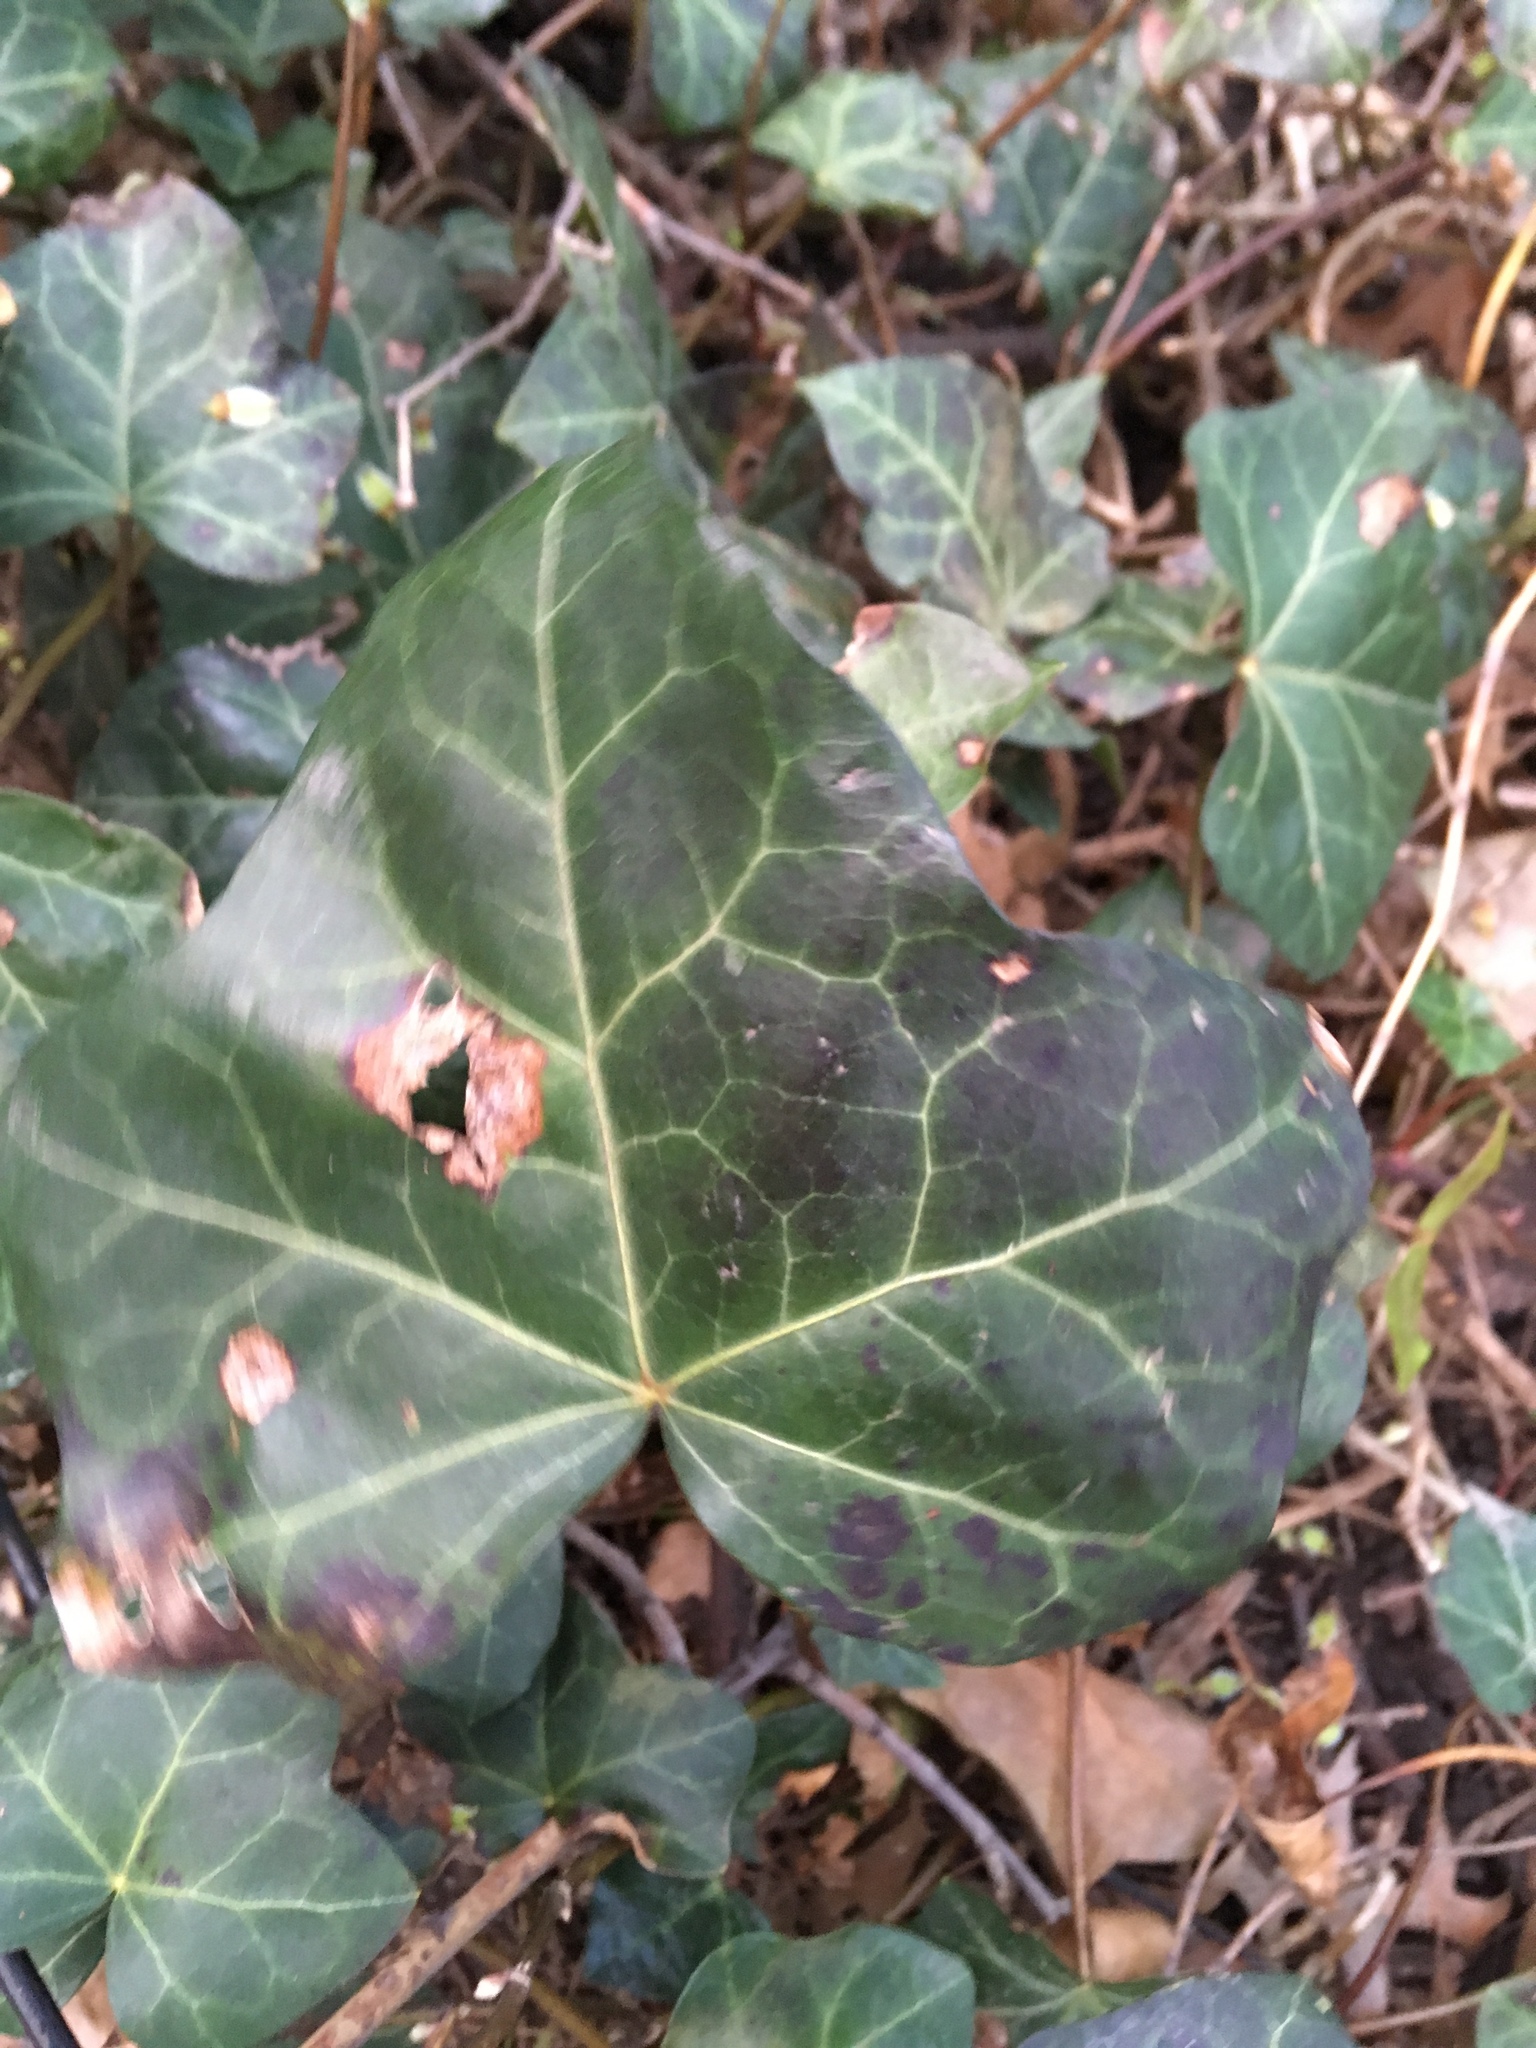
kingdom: Plantae
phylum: Tracheophyta
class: Magnoliopsida
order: Apiales
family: Araliaceae
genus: Hedera
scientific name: Hedera helix
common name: Ivy
